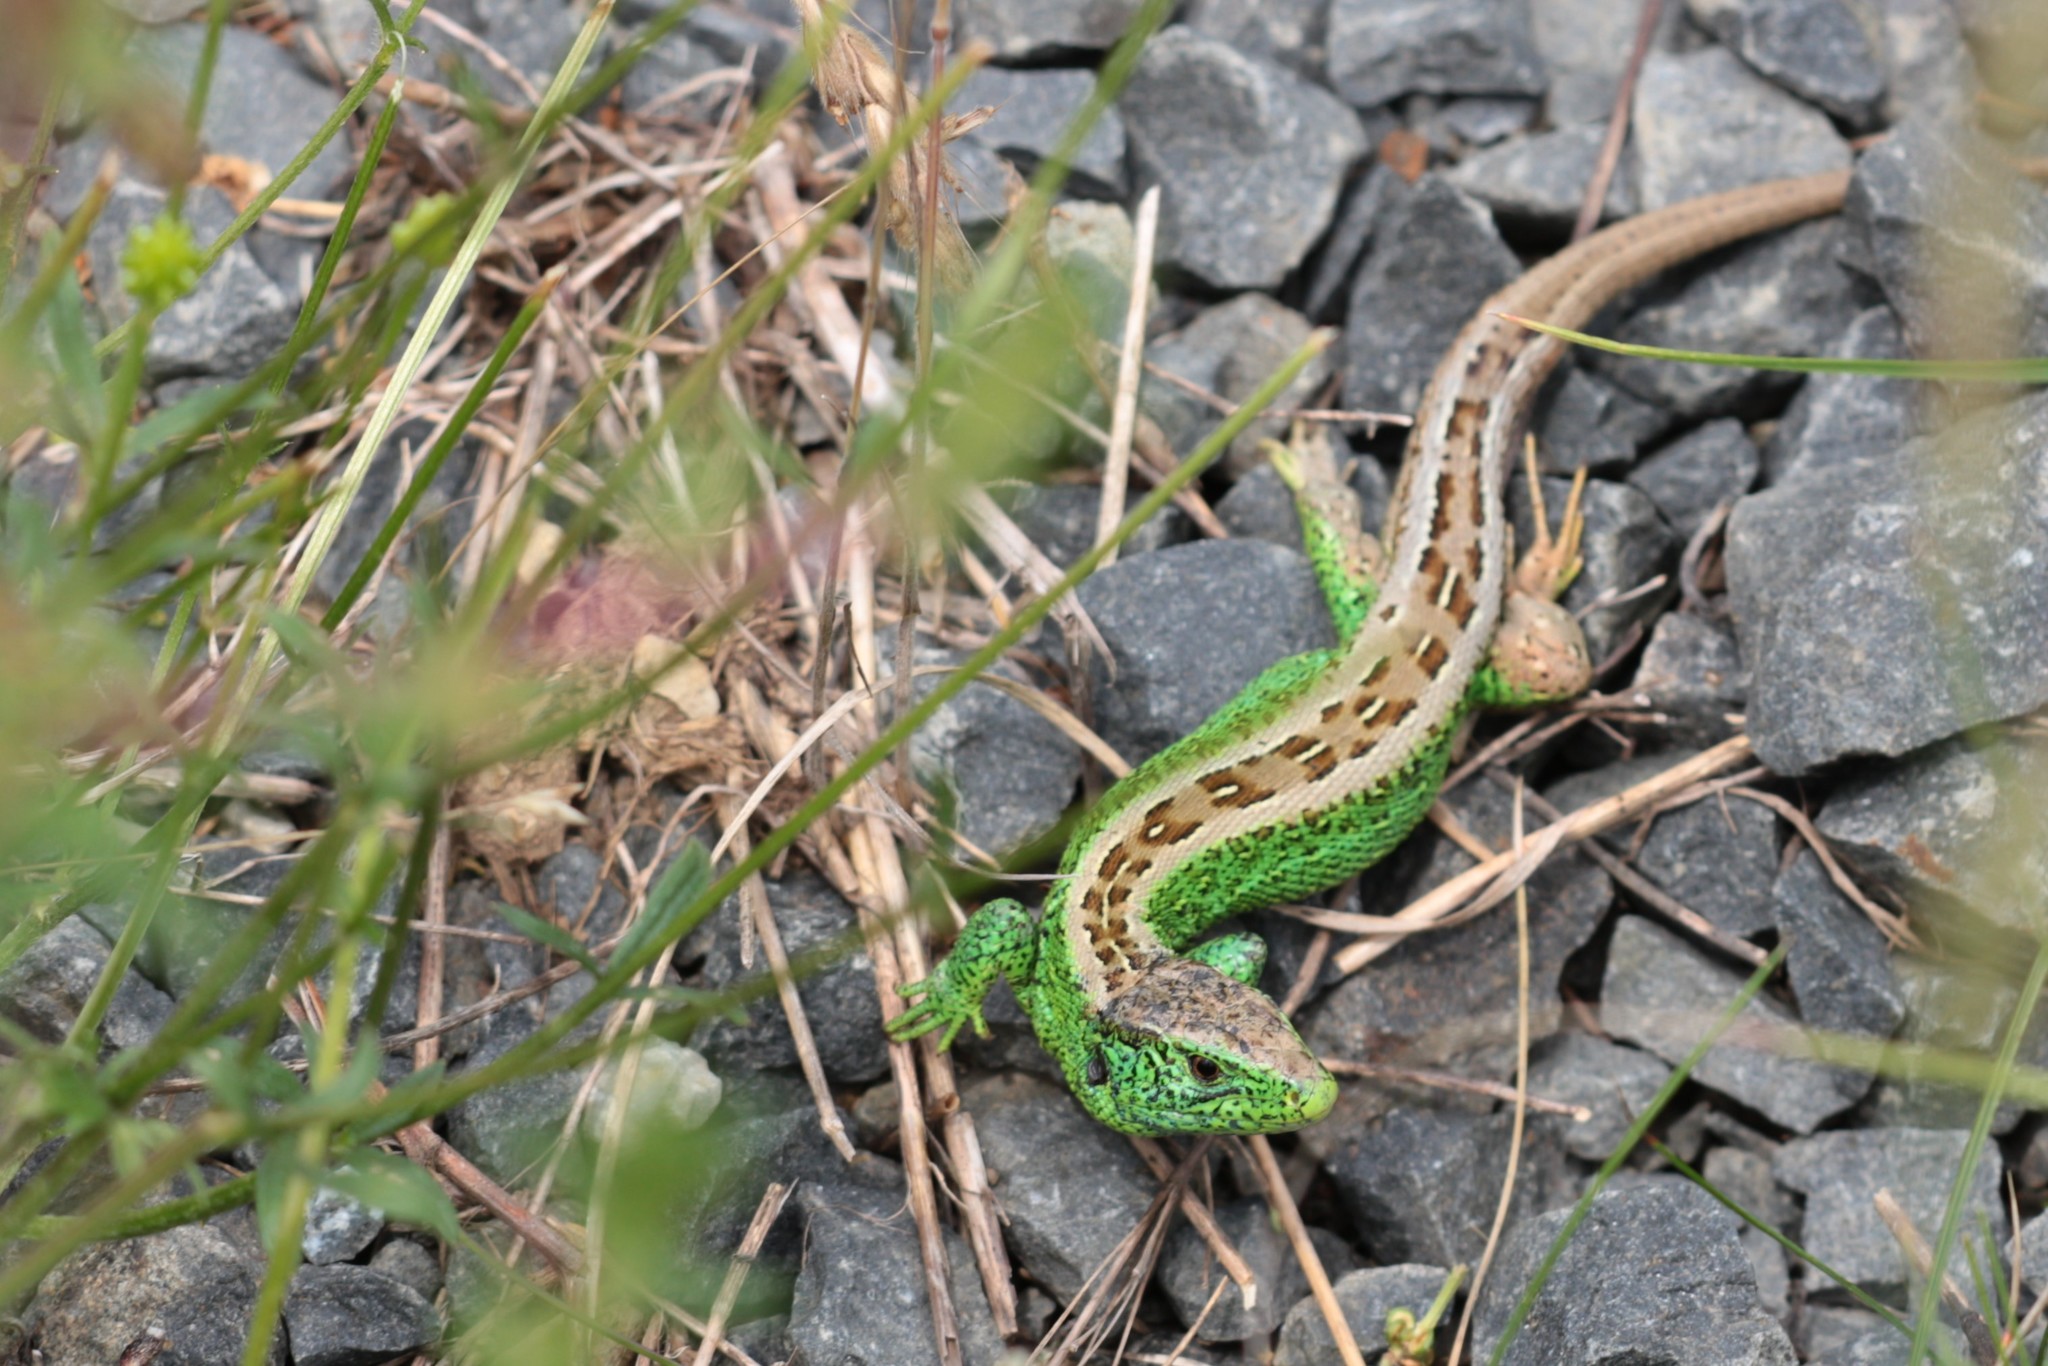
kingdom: Animalia
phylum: Chordata
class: Squamata
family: Lacertidae
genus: Lacerta
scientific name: Lacerta agilis
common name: Sand lizard
